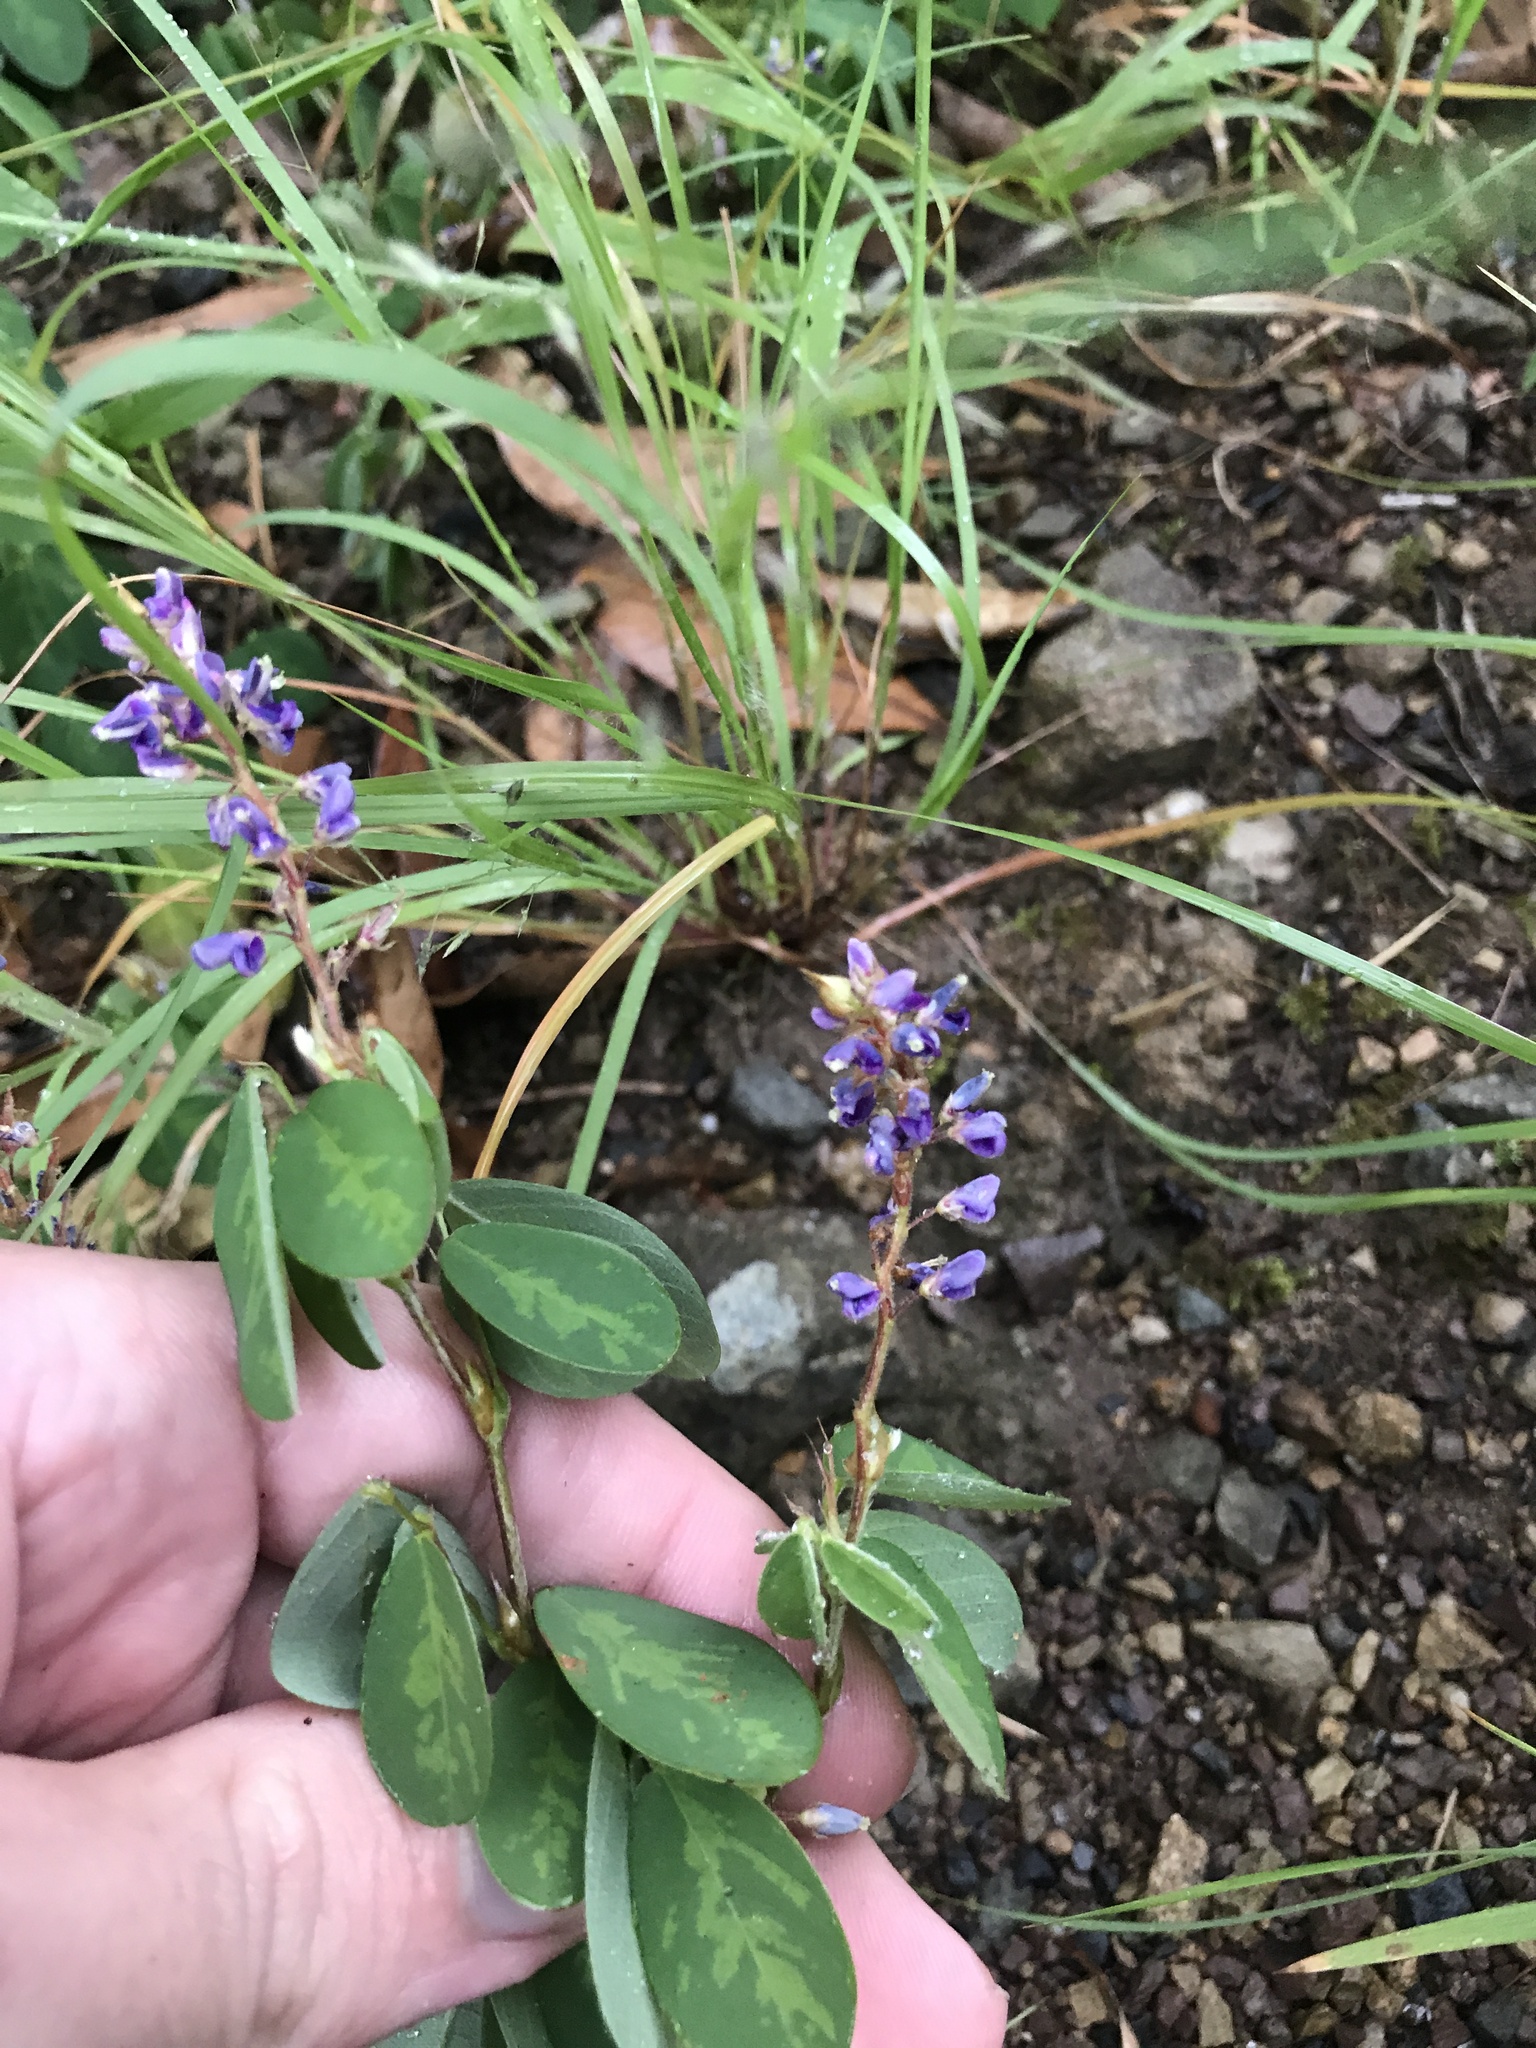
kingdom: Plantae
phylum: Tracheophyta
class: Magnoliopsida
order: Fabales
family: Fabaceae
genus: Grona
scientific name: Grona heterocarpos
